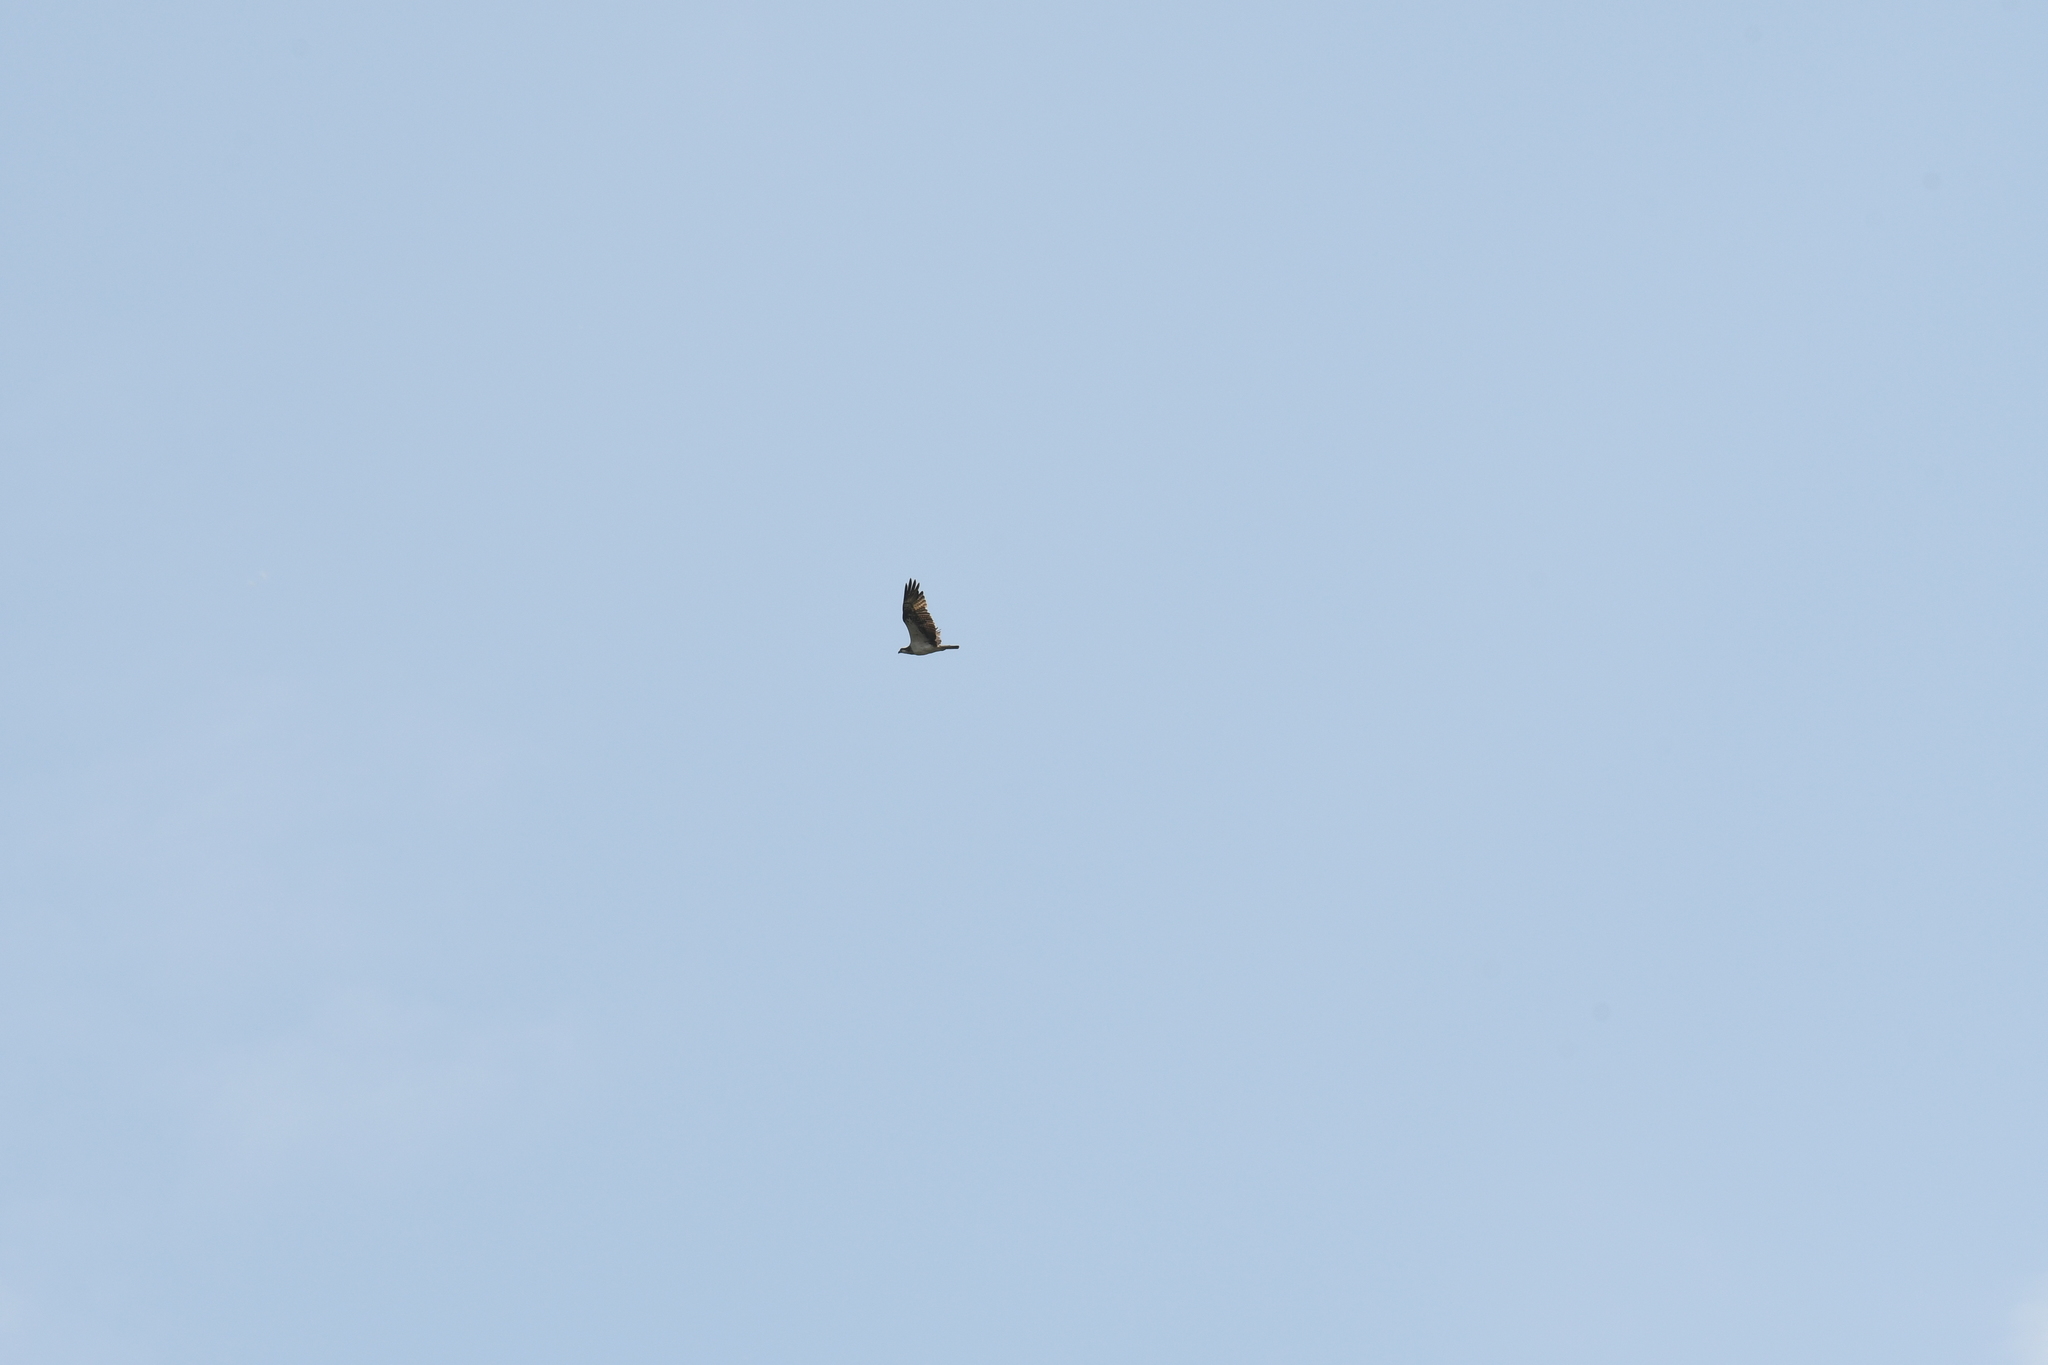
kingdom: Animalia
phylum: Chordata
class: Aves
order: Accipitriformes
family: Pandionidae
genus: Pandion
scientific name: Pandion haliaetus
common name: Osprey
